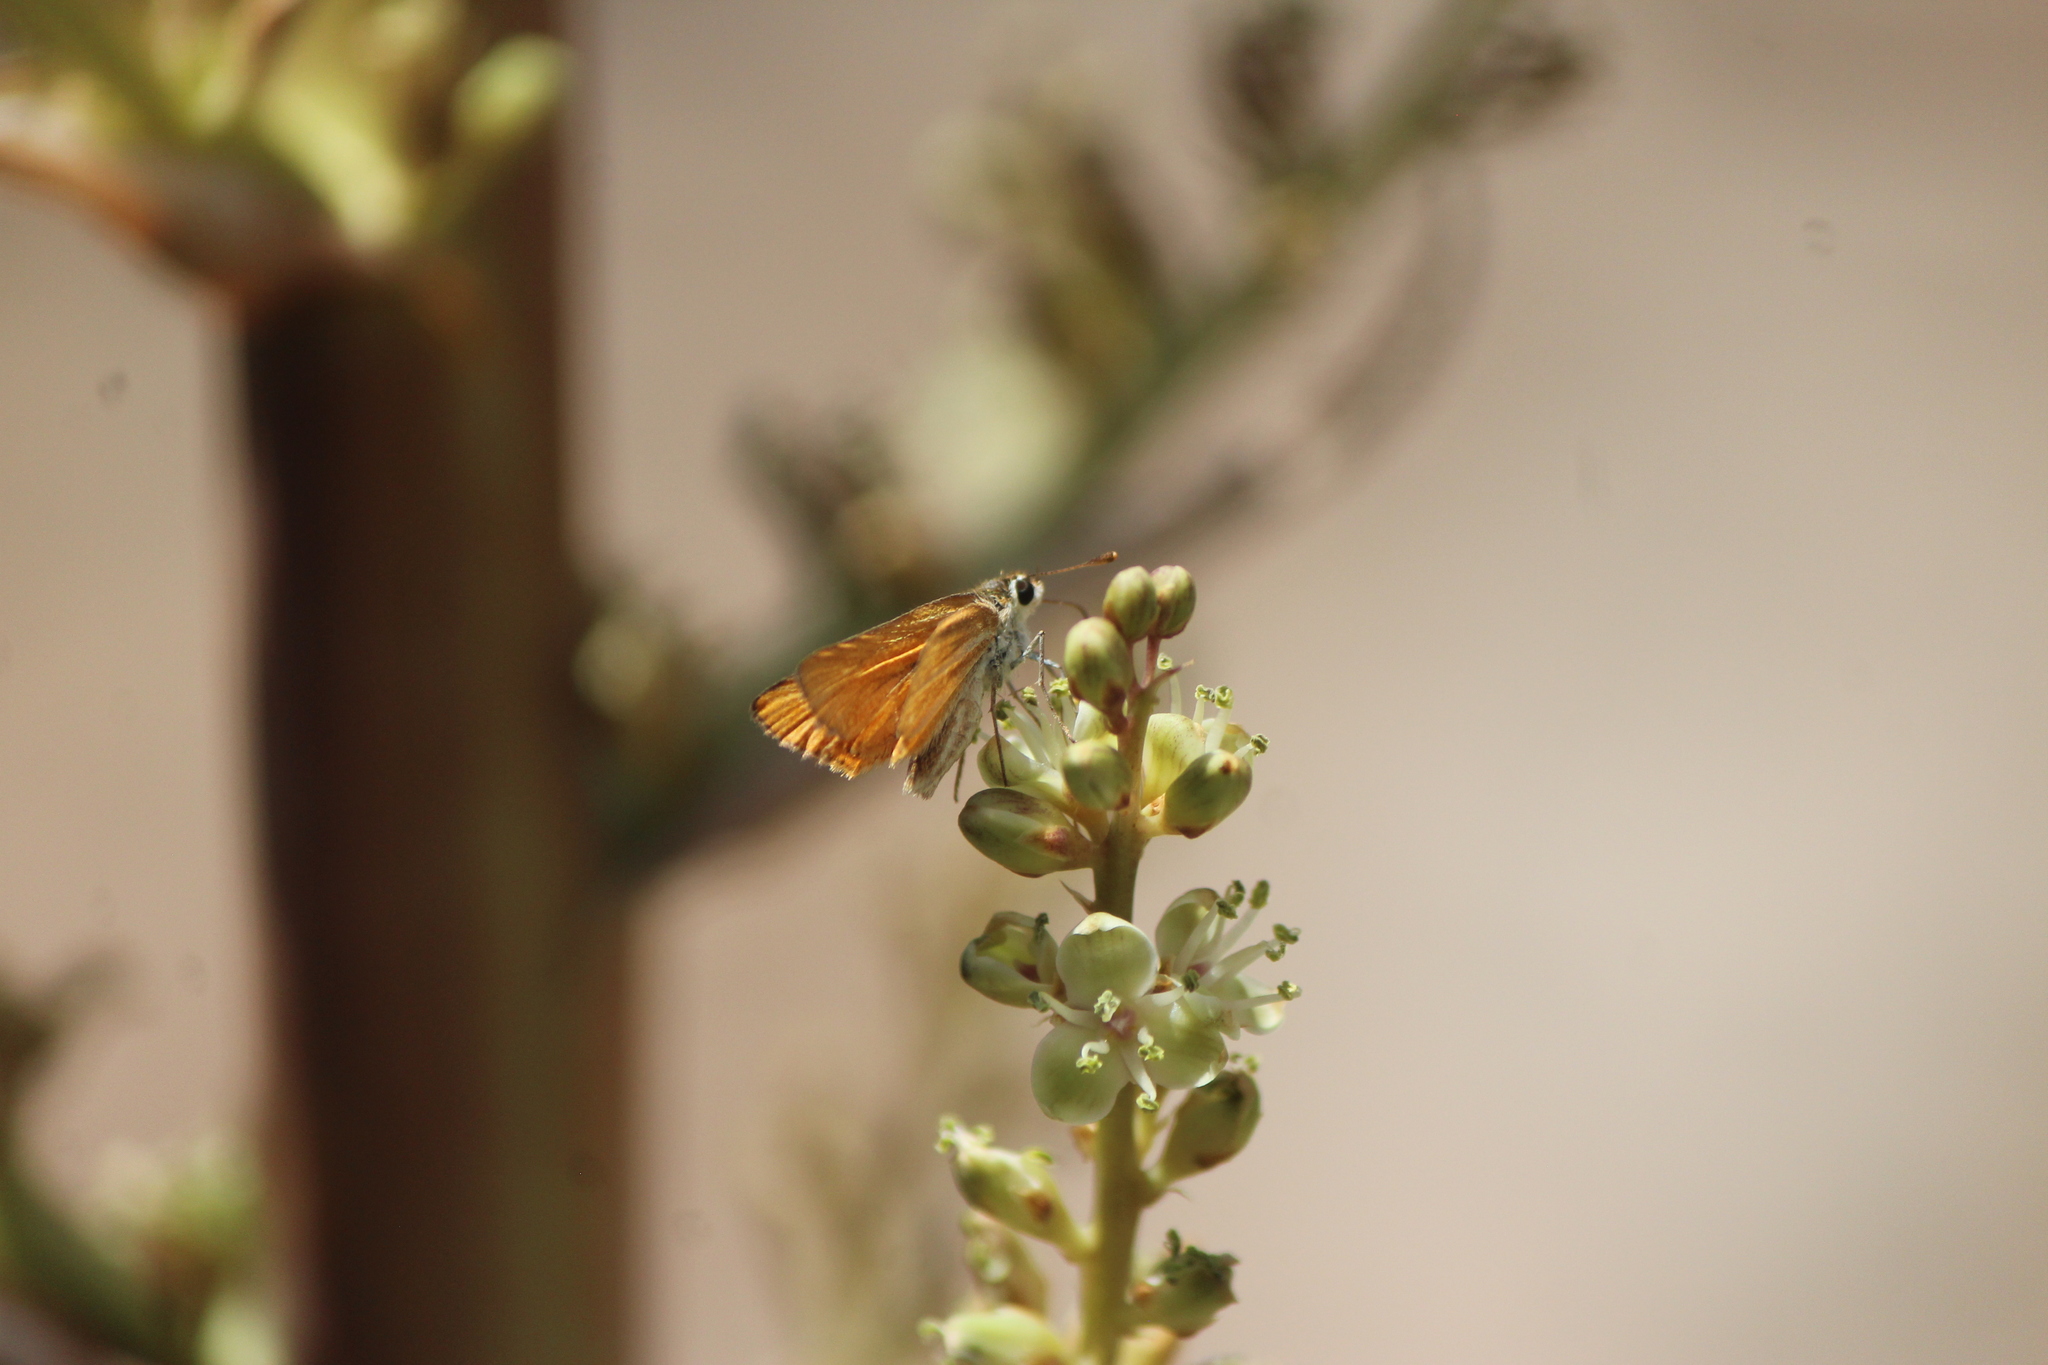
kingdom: Animalia
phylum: Arthropoda
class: Insecta
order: Lepidoptera
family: Hesperiidae
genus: Copaeodes
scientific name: Copaeodes minima
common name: Southern skipperling
